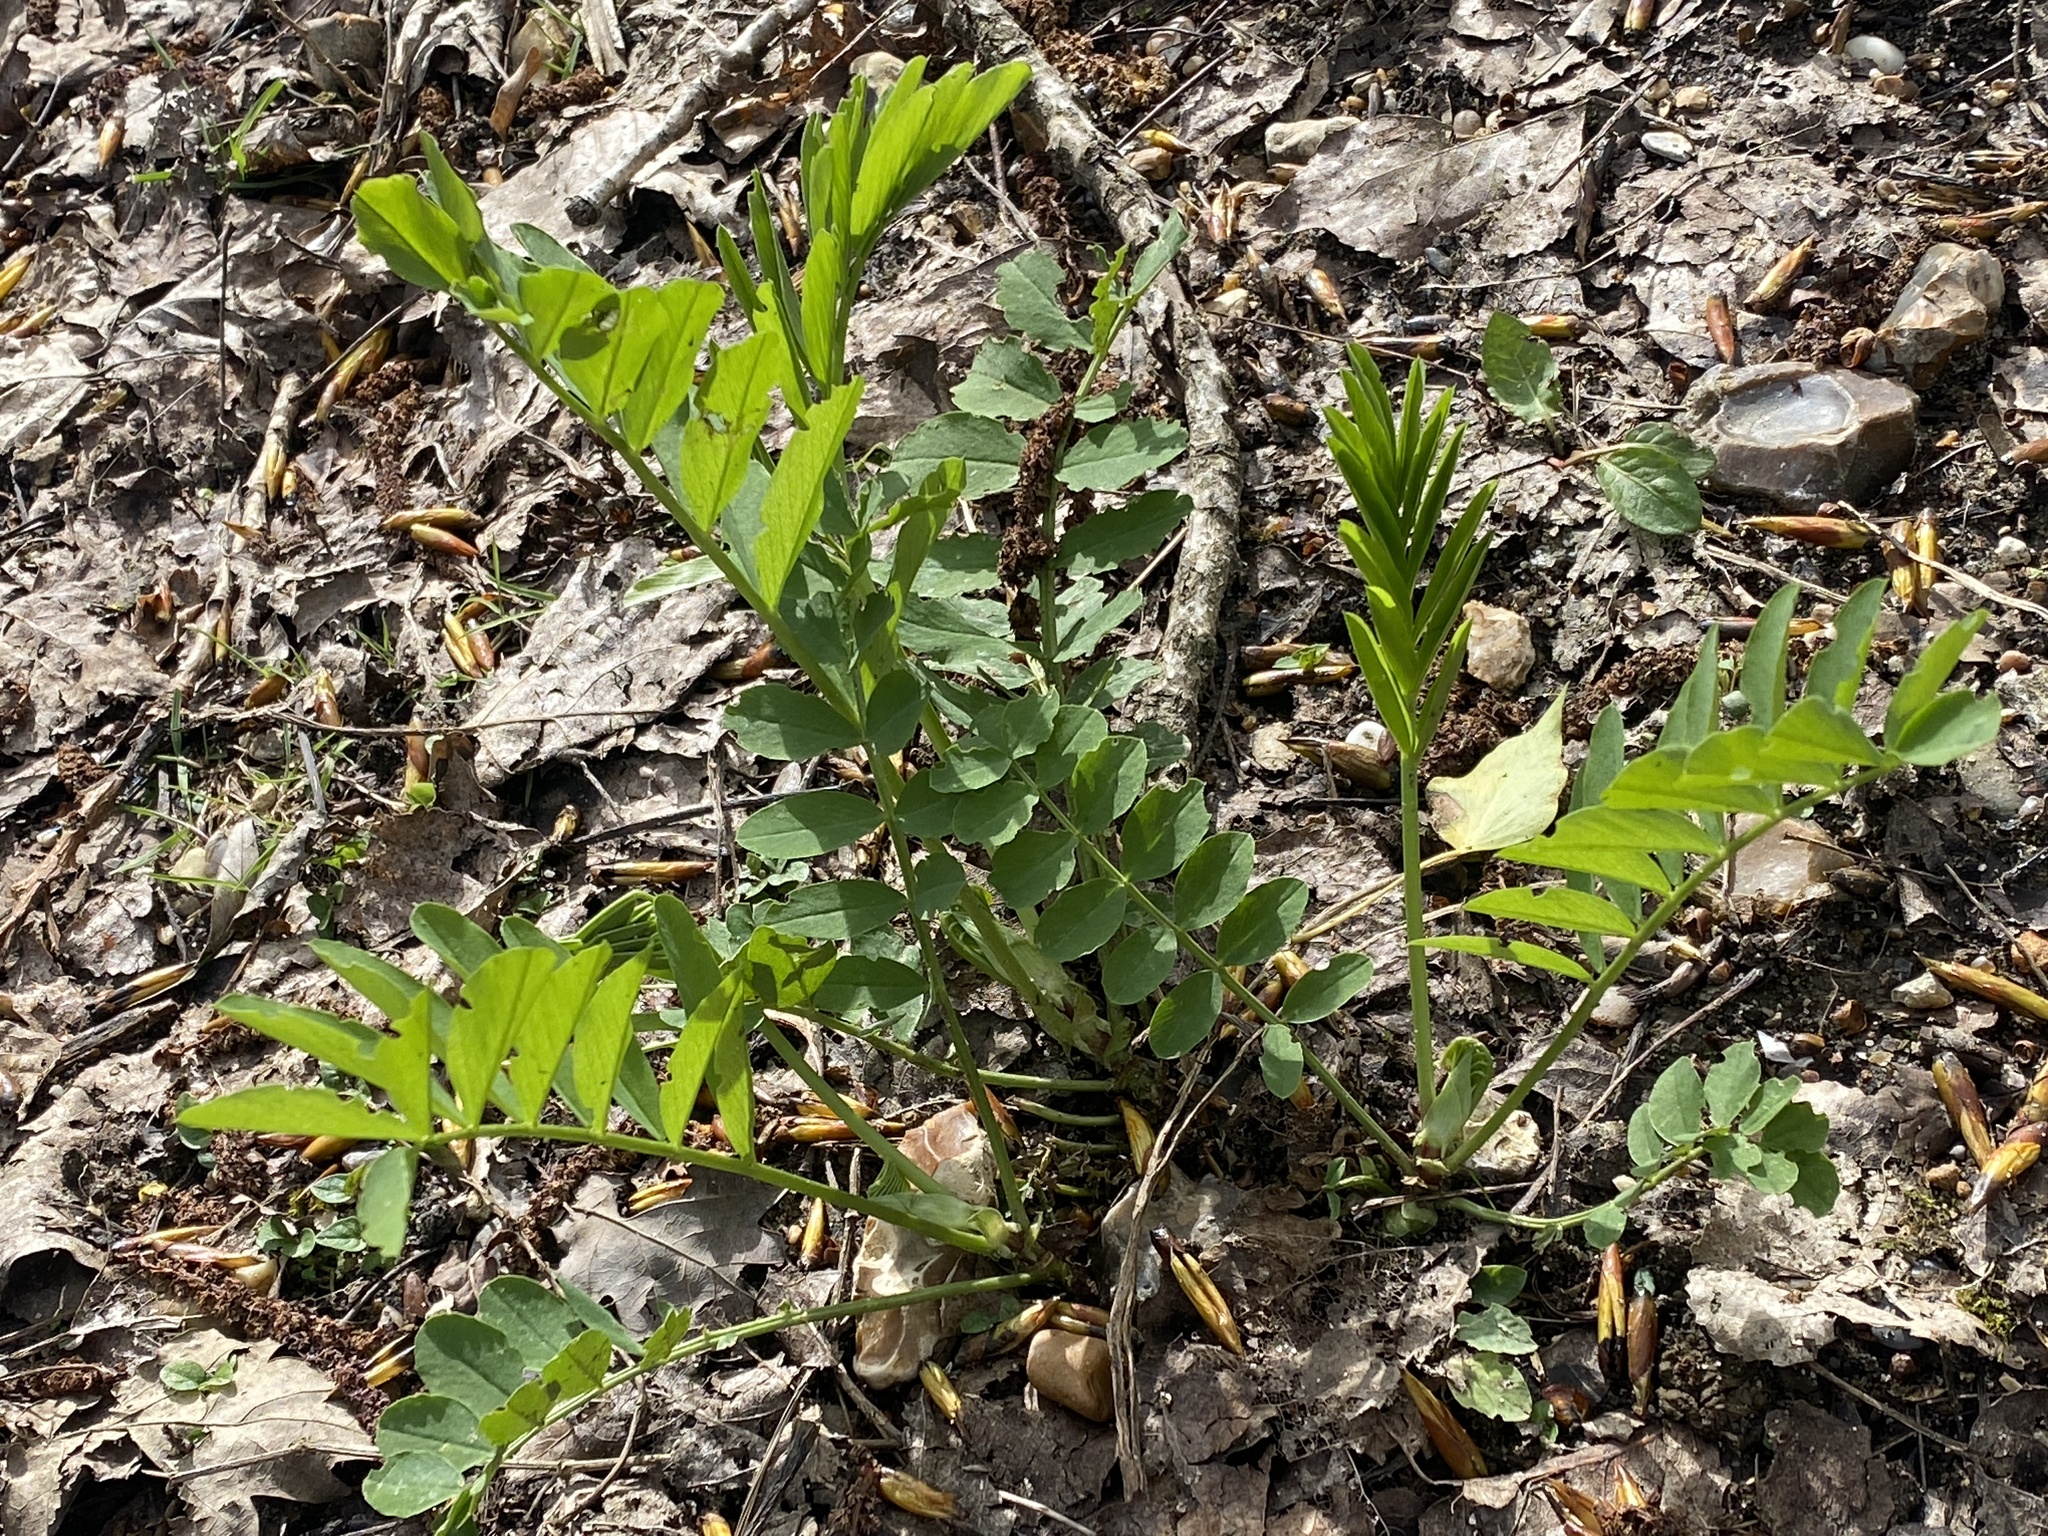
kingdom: Plantae
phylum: Tracheophyta
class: Magnoliopsida
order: Fabales
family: Fabaceae
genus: Galega
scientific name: Galega officinalis
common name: Goat's-rue
